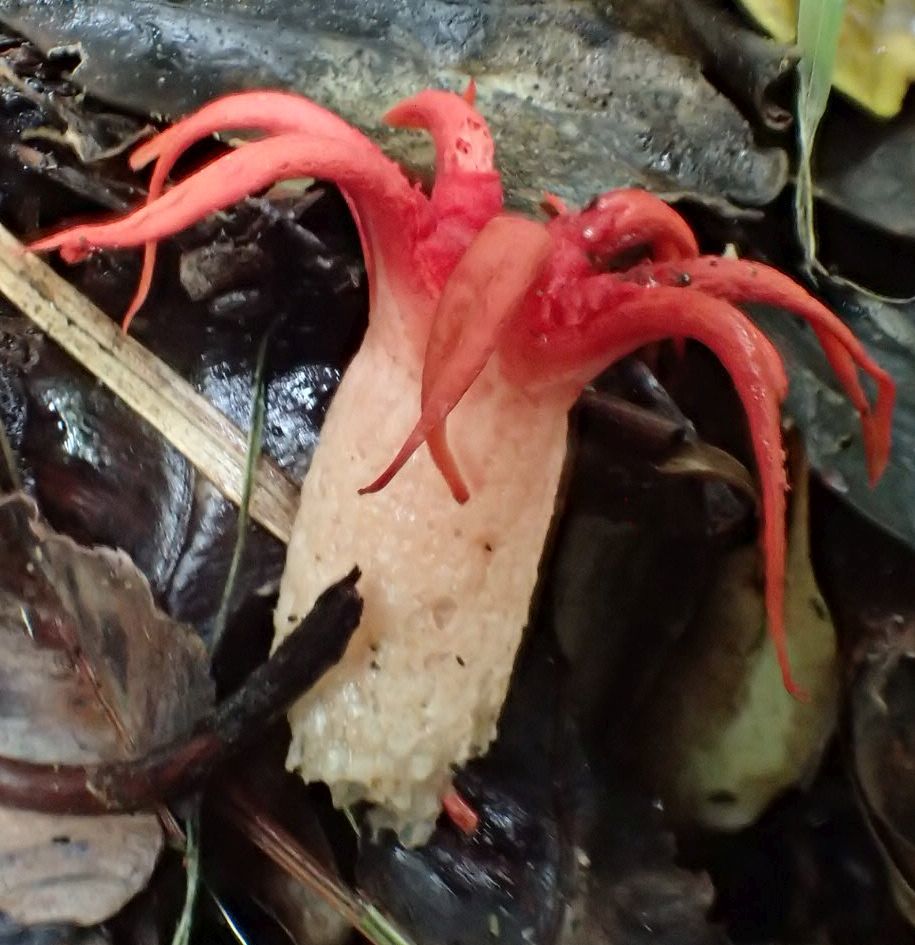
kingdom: Fungi
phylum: Basidiomycota
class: Agaricomycetes
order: Phallales
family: Phallaceae
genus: Aseroe
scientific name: Aseroe rubra
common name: Starfish fungus
